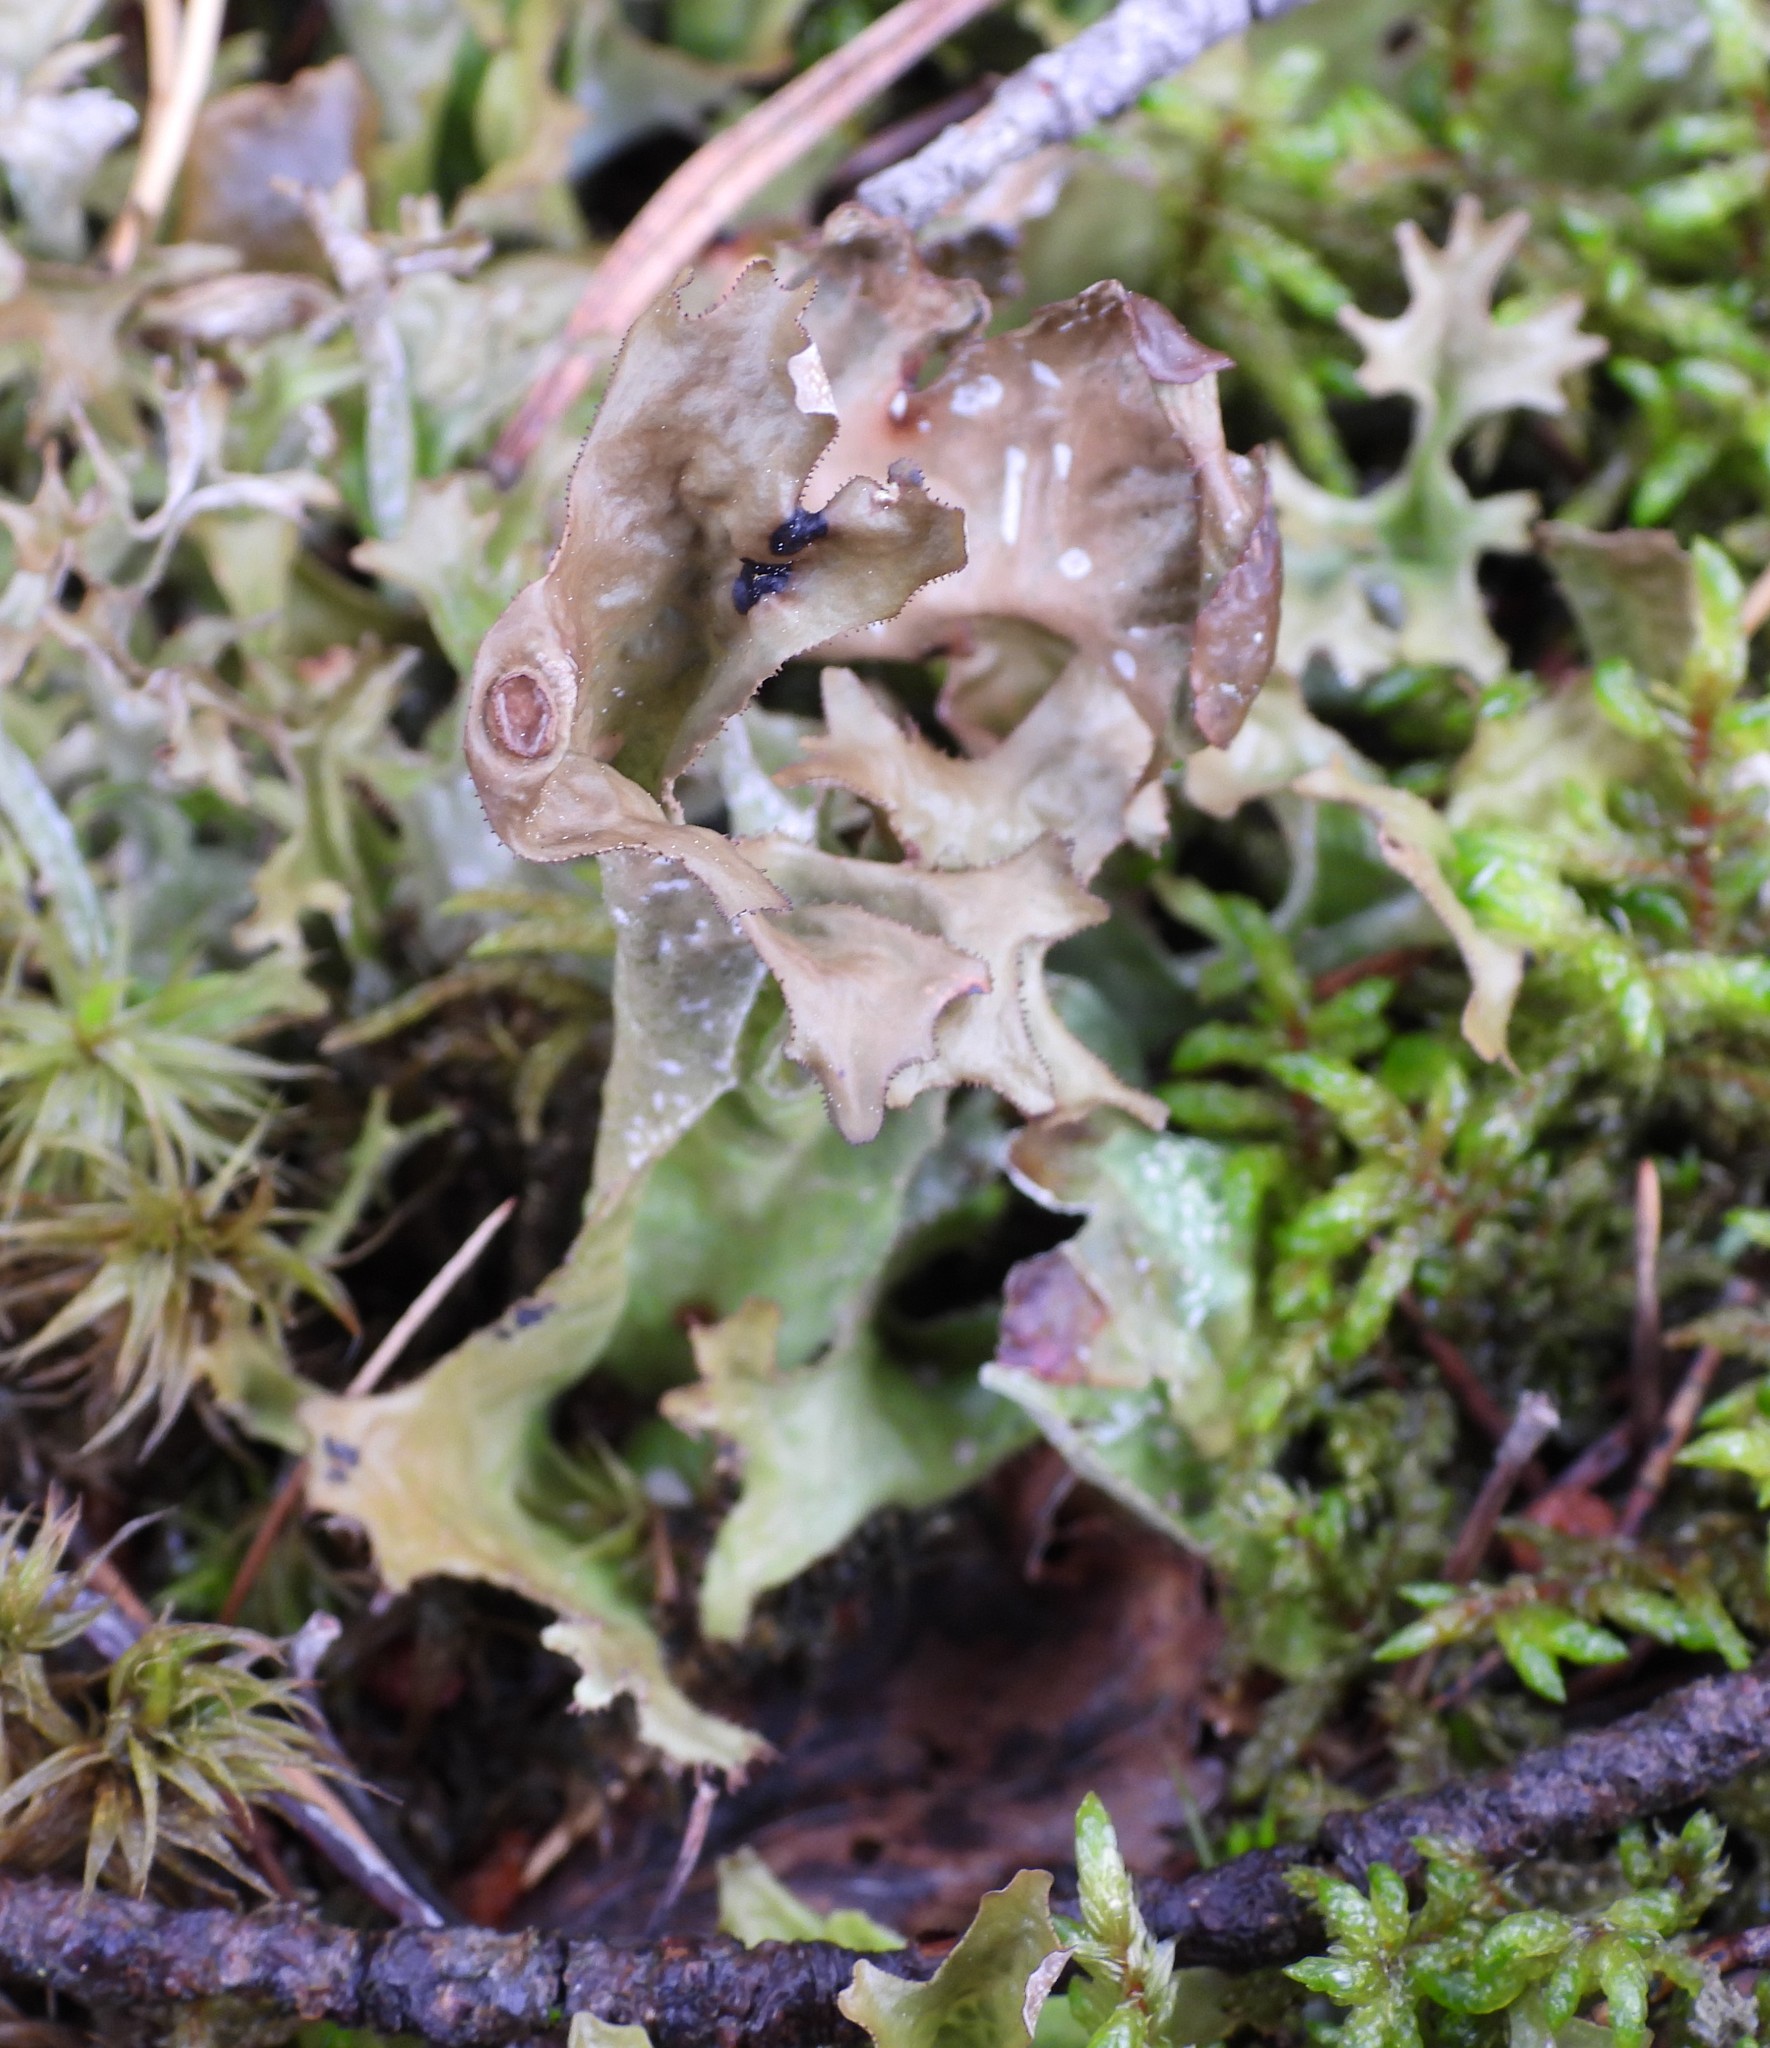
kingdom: Fungi
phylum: Ascomycota
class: Lecanoromycetes
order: Lecanorales
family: Parmeliaceae
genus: Cetraria
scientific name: Cetraria islandica
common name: Iceland lichen
